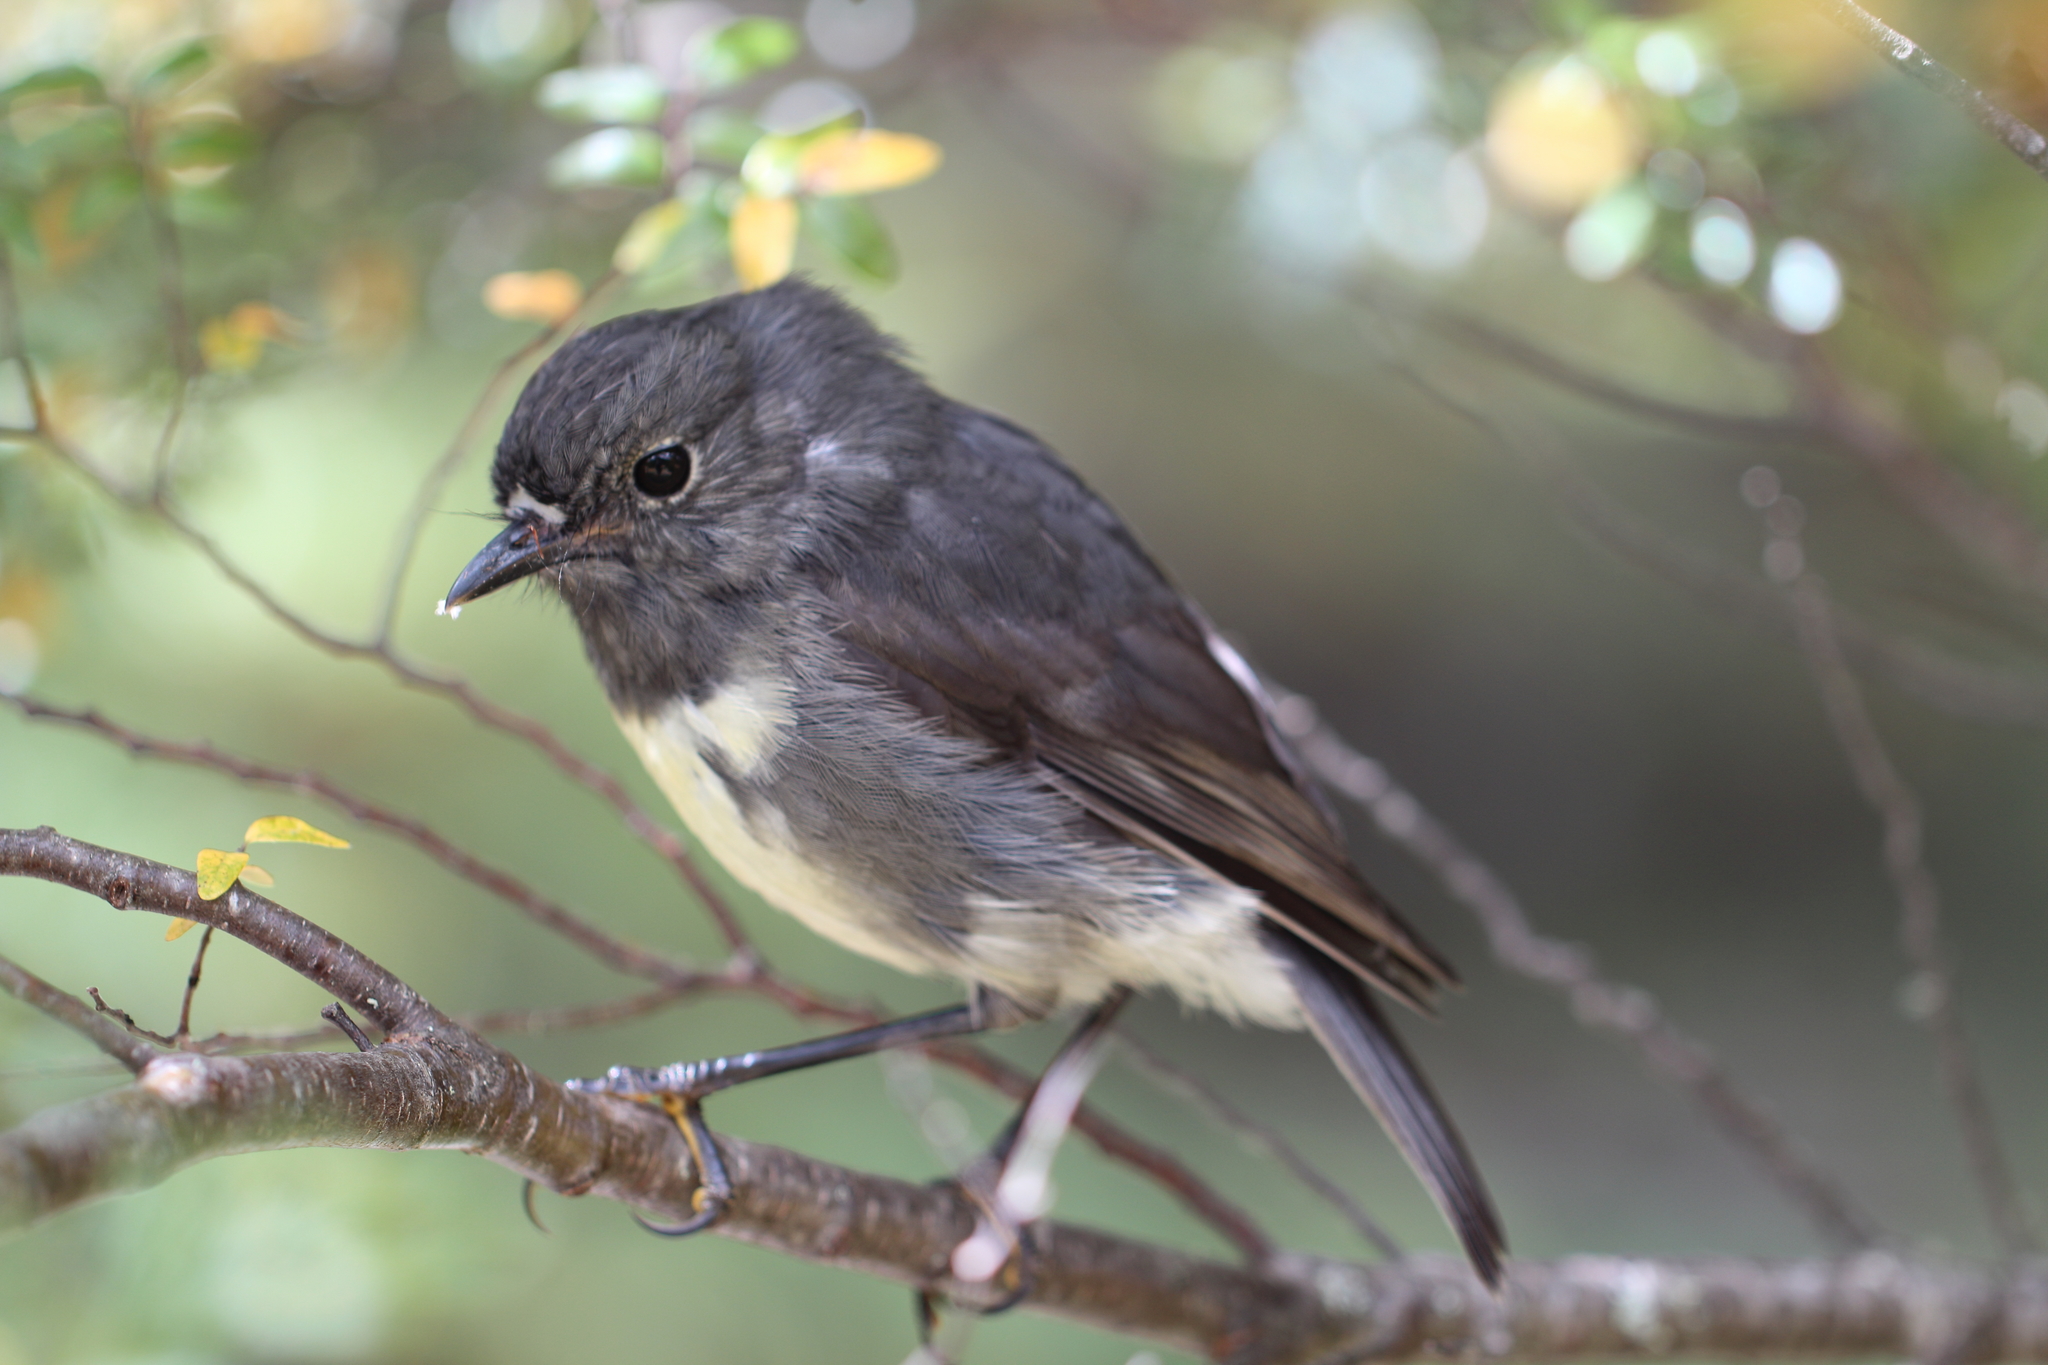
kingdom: Animalia
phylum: Chordata
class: Aves
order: Passeriformes
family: Petroicidae
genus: Petroica
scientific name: Petroica australis
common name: New zealand robin
